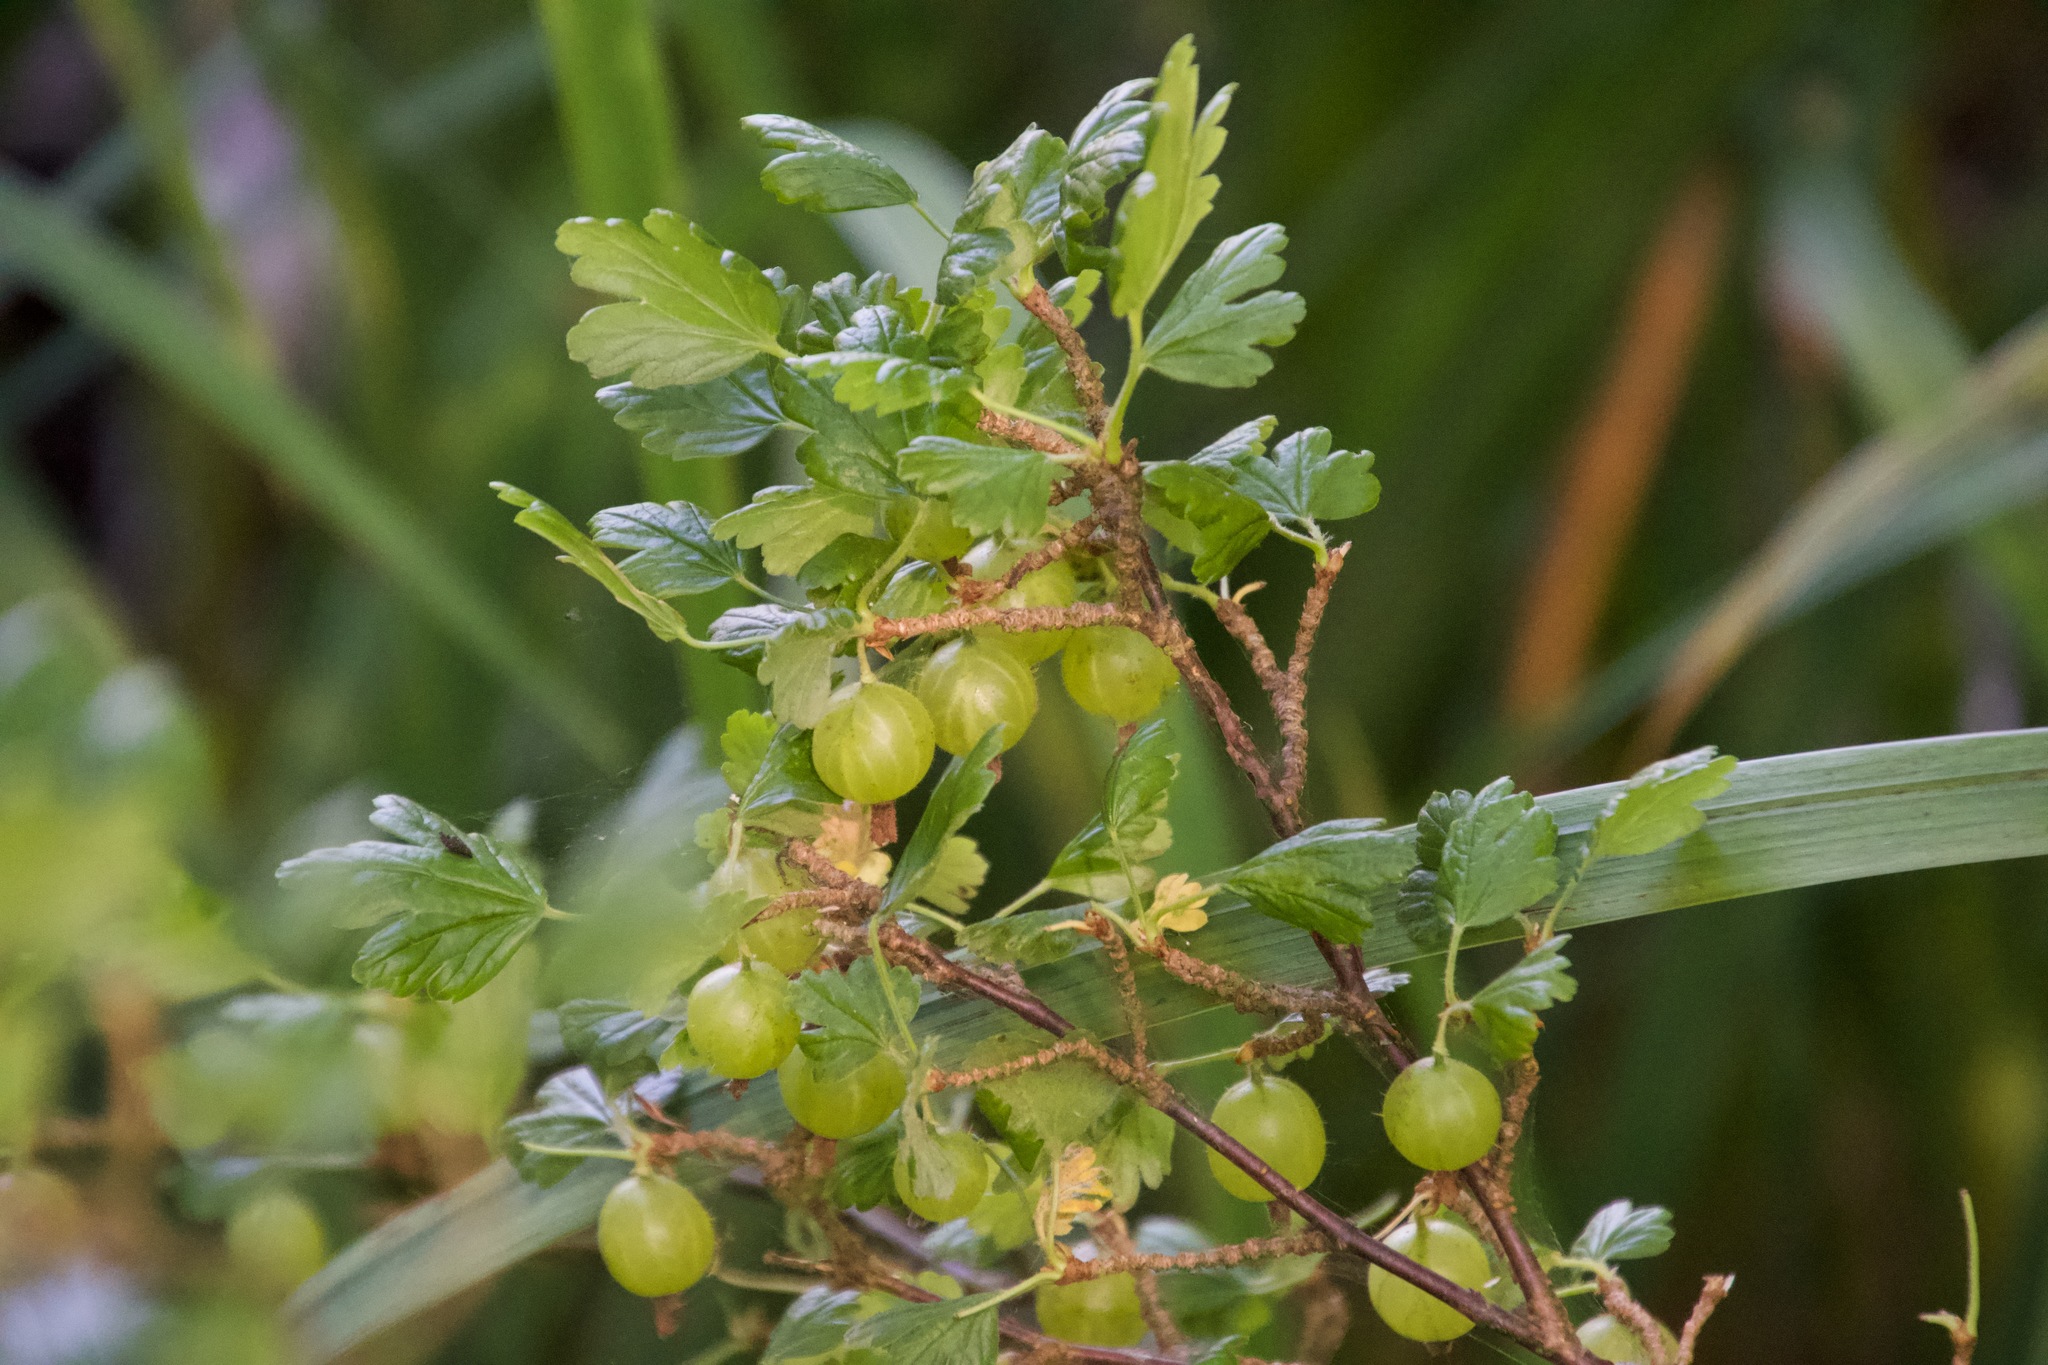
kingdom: Plantae
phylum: Tracheophyta
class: Magnoliopsida
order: Saxifragales
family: Grossulariaceae
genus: Ribes
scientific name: Ribes uva-crispa
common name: Gooseberry
